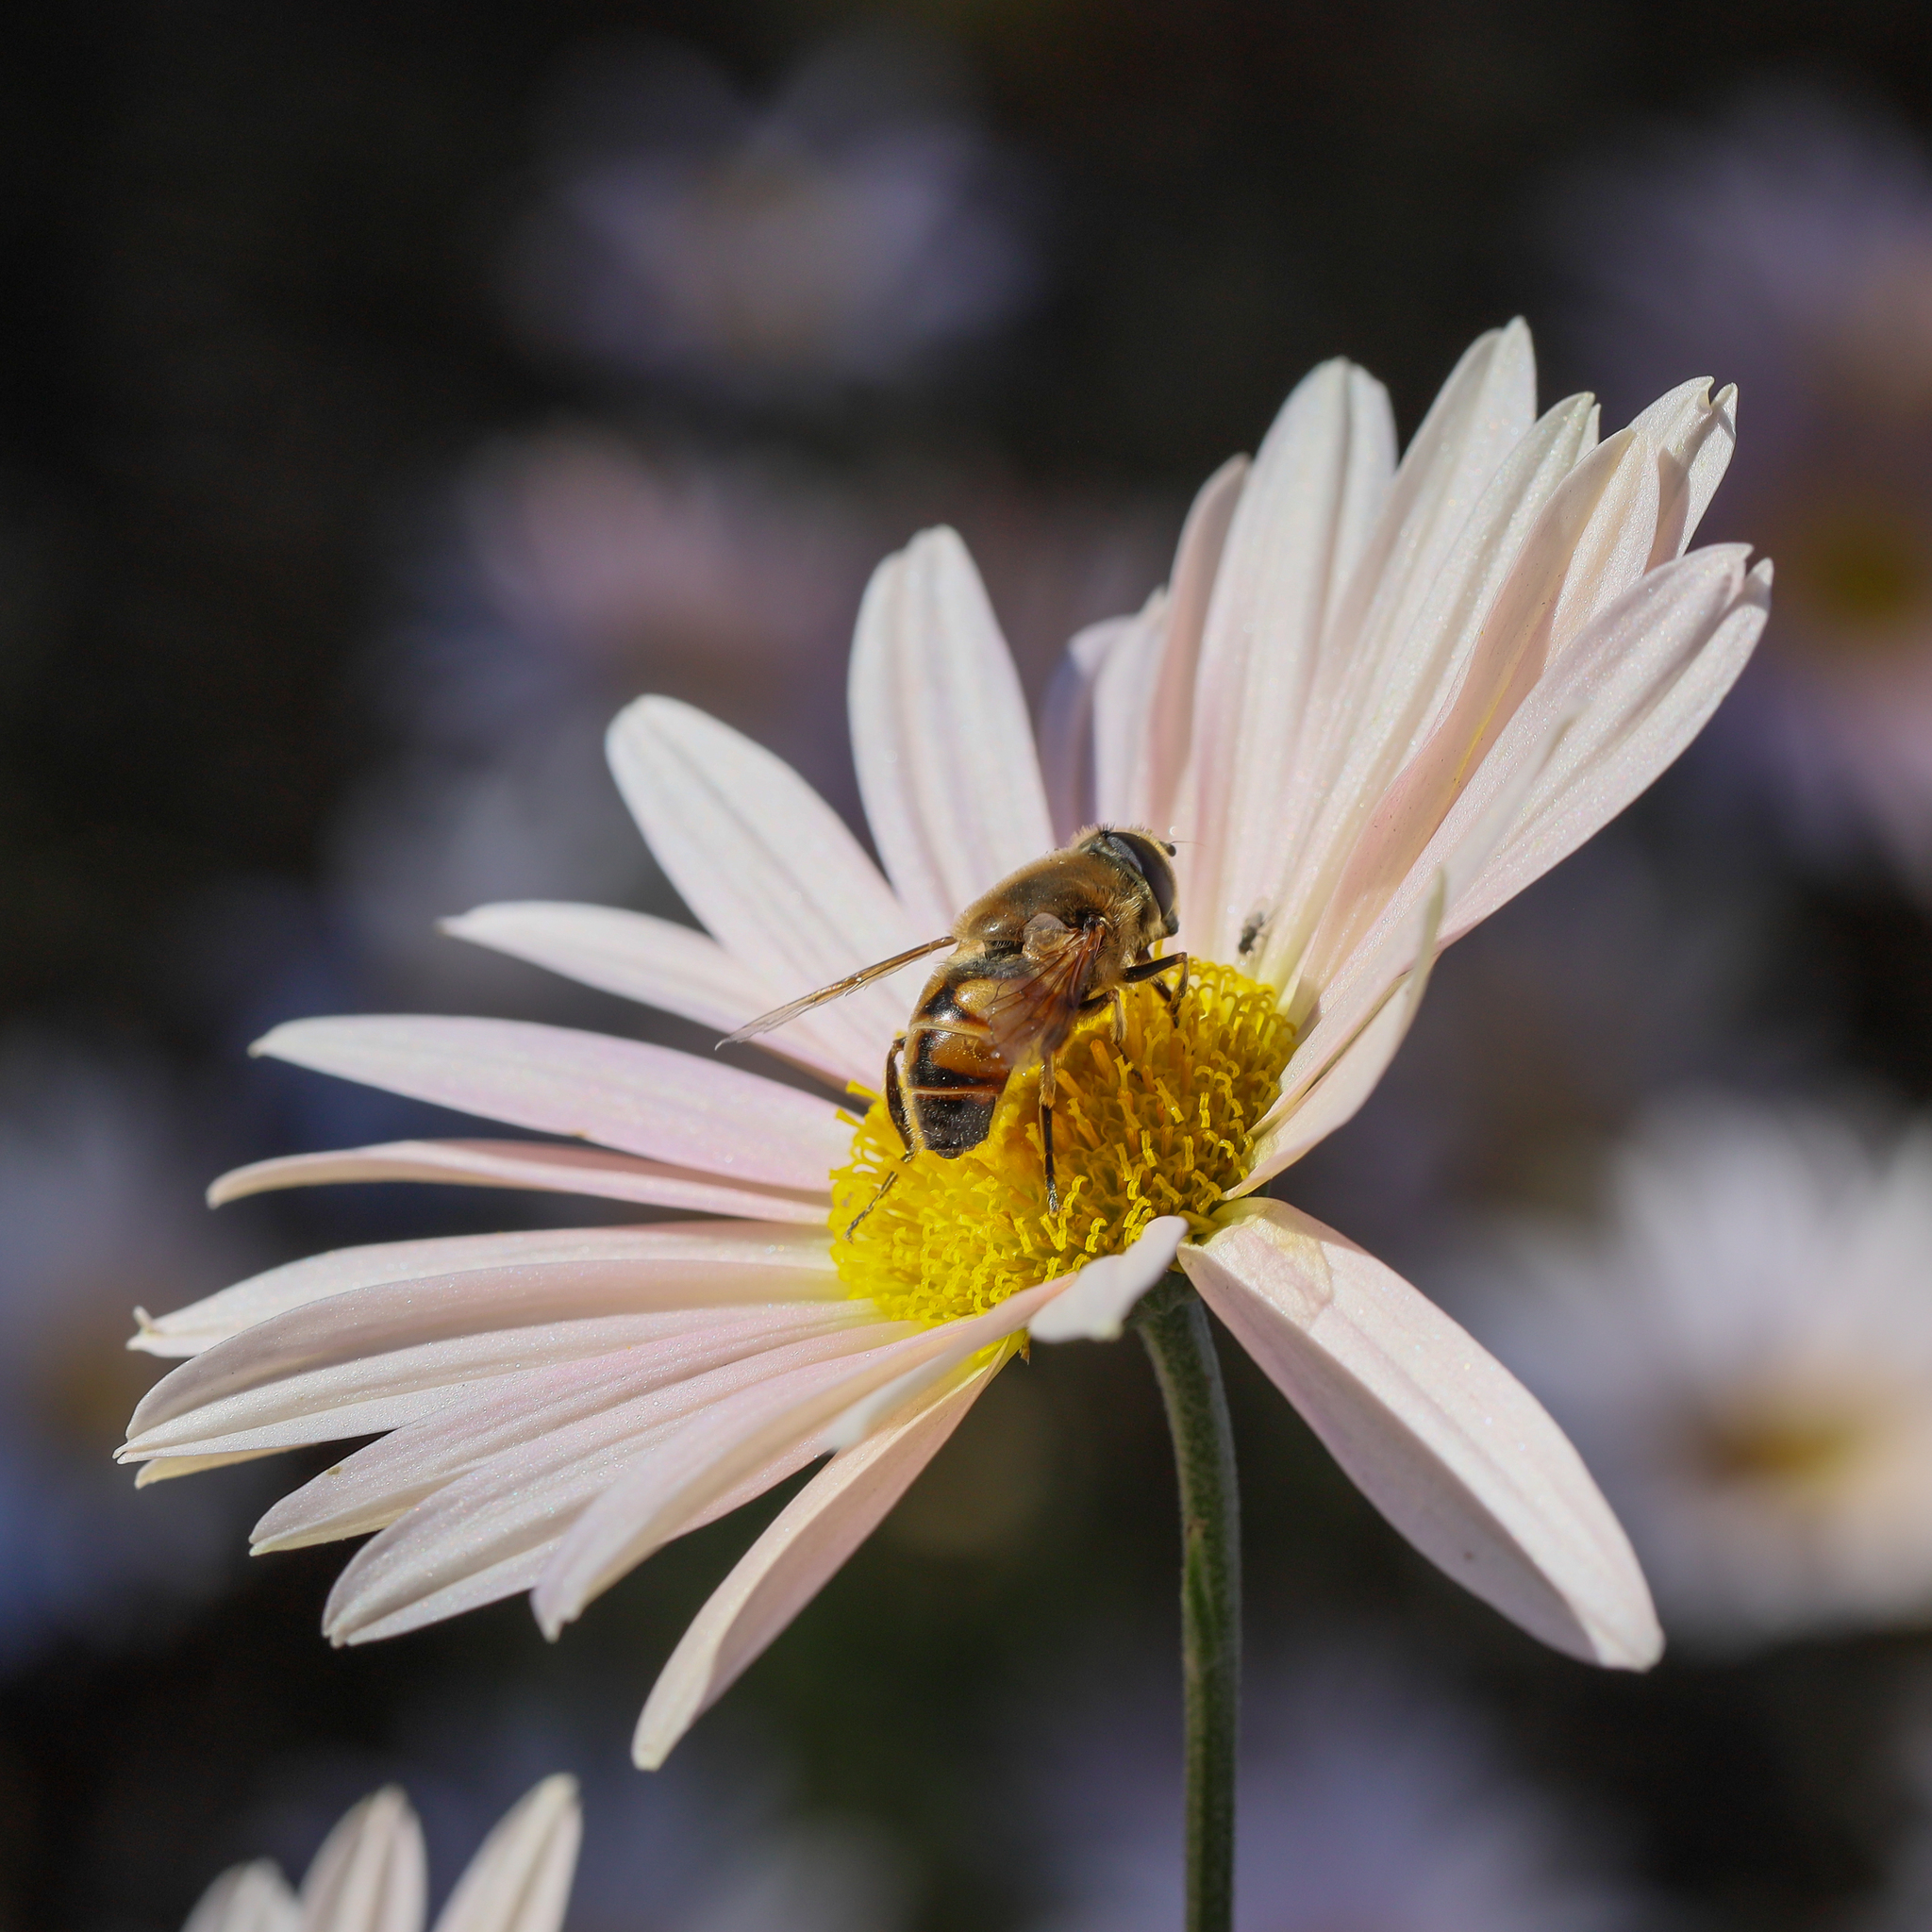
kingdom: Animalia
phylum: Arthropoda
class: Insecta
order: Diptera
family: Syrphidae
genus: Eristalis
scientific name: Eristalis tenax
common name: Drone fly
